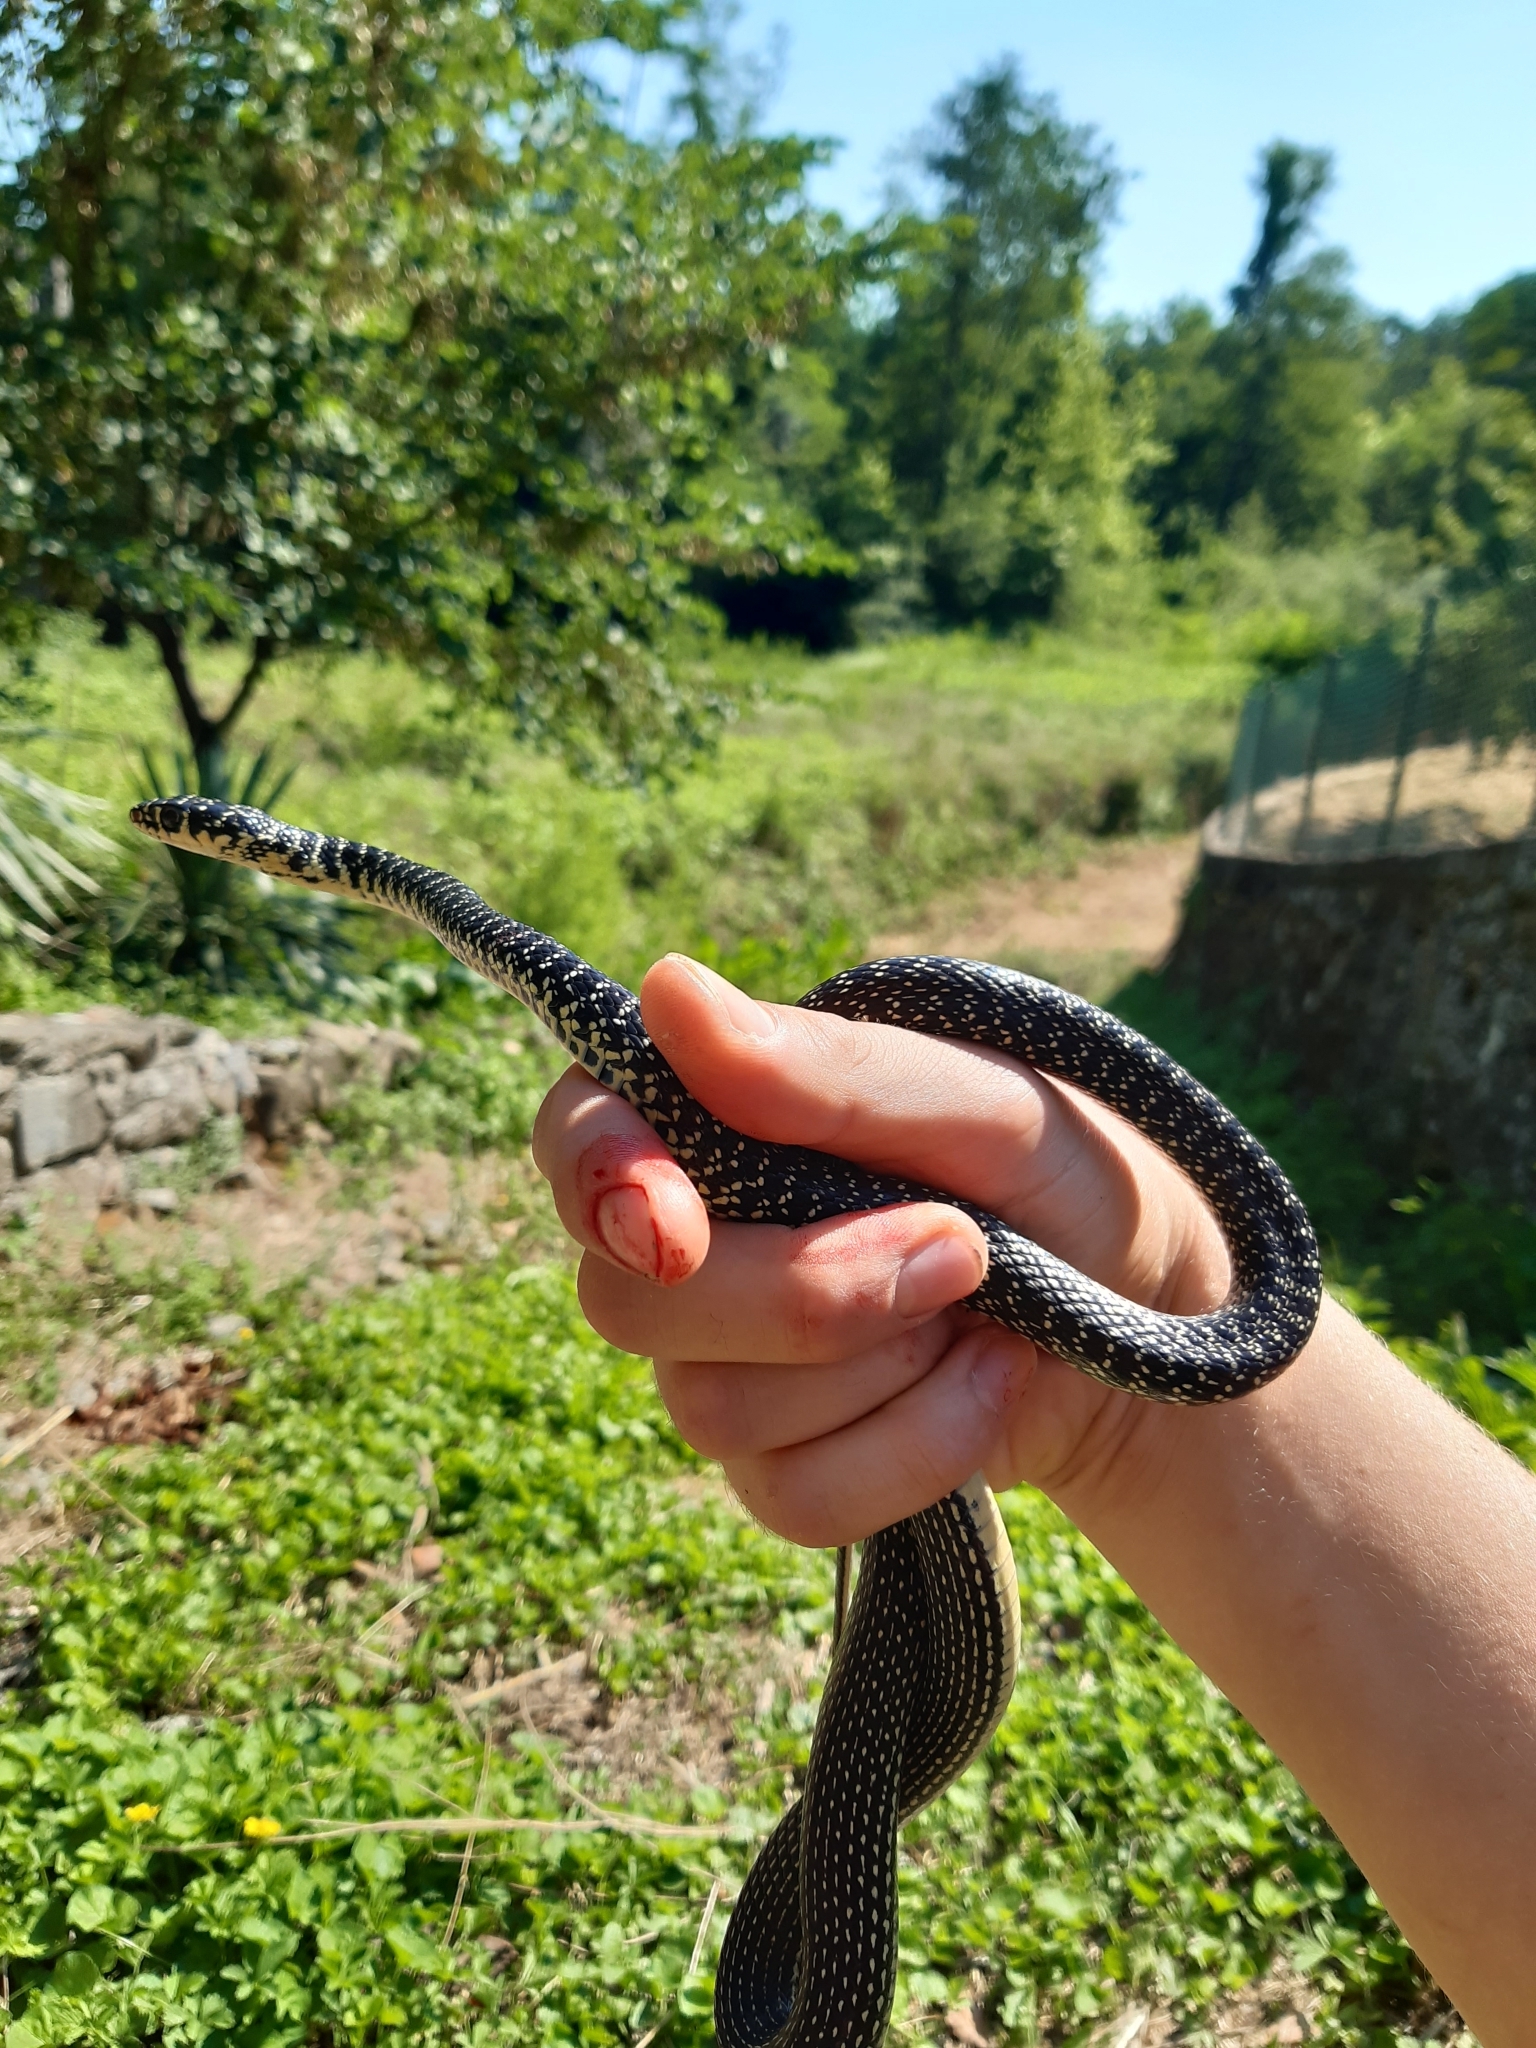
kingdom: Animalia
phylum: Chordata
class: Squamata
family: Colubridae
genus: Hierophis
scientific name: Hierophis viridiflavus
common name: Green whip snake
